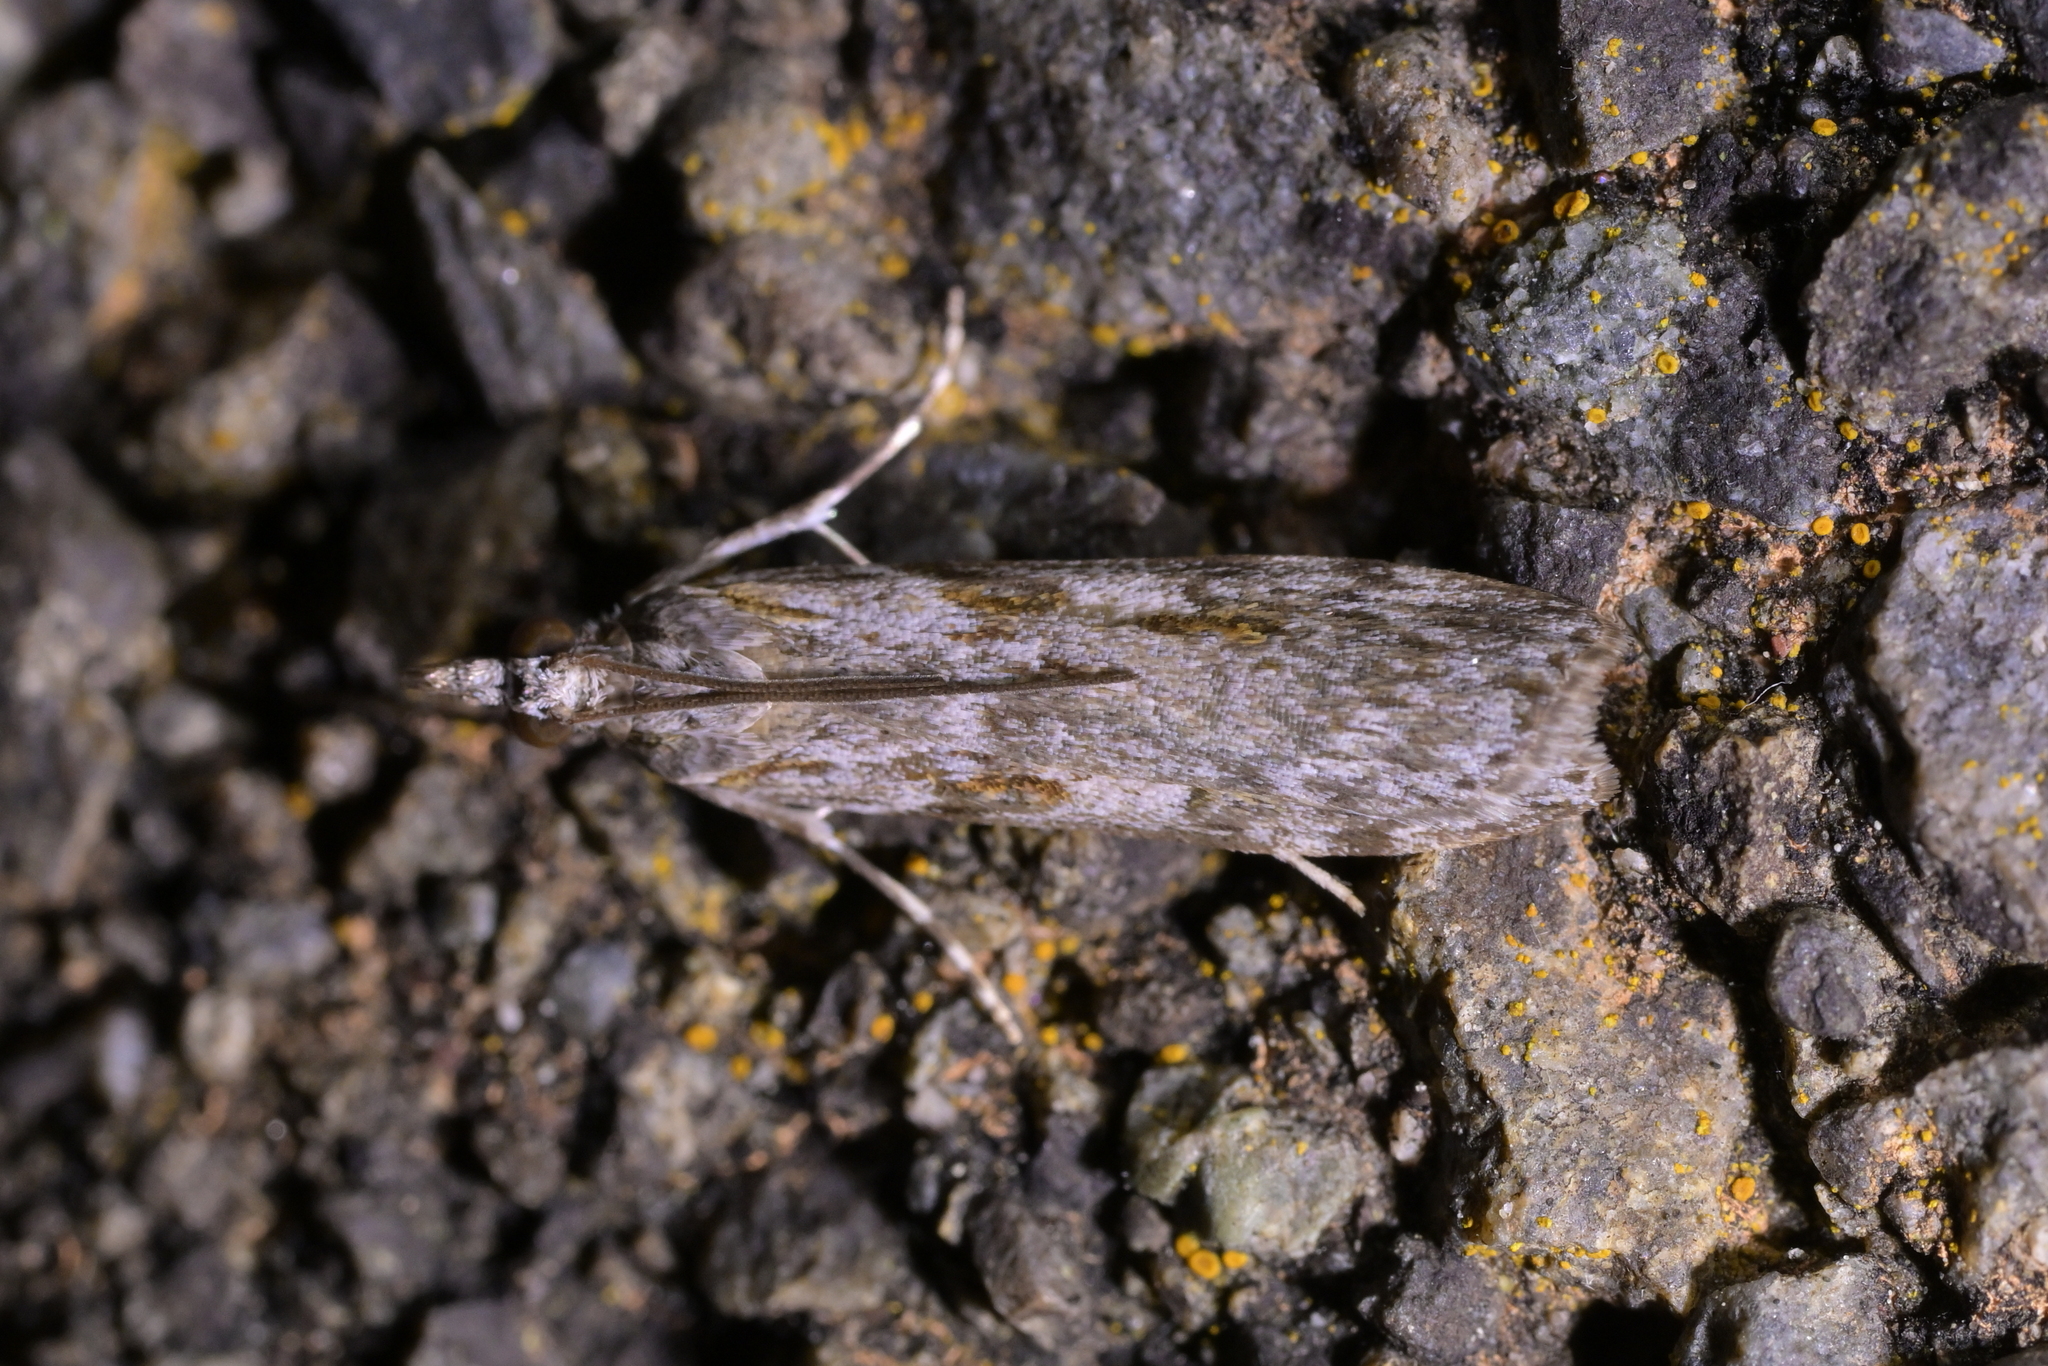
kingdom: Animalia
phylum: Arthropoda
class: Insecta
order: Lepidoptera
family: Crambidae
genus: Scoparia
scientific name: Scoparia halopis
